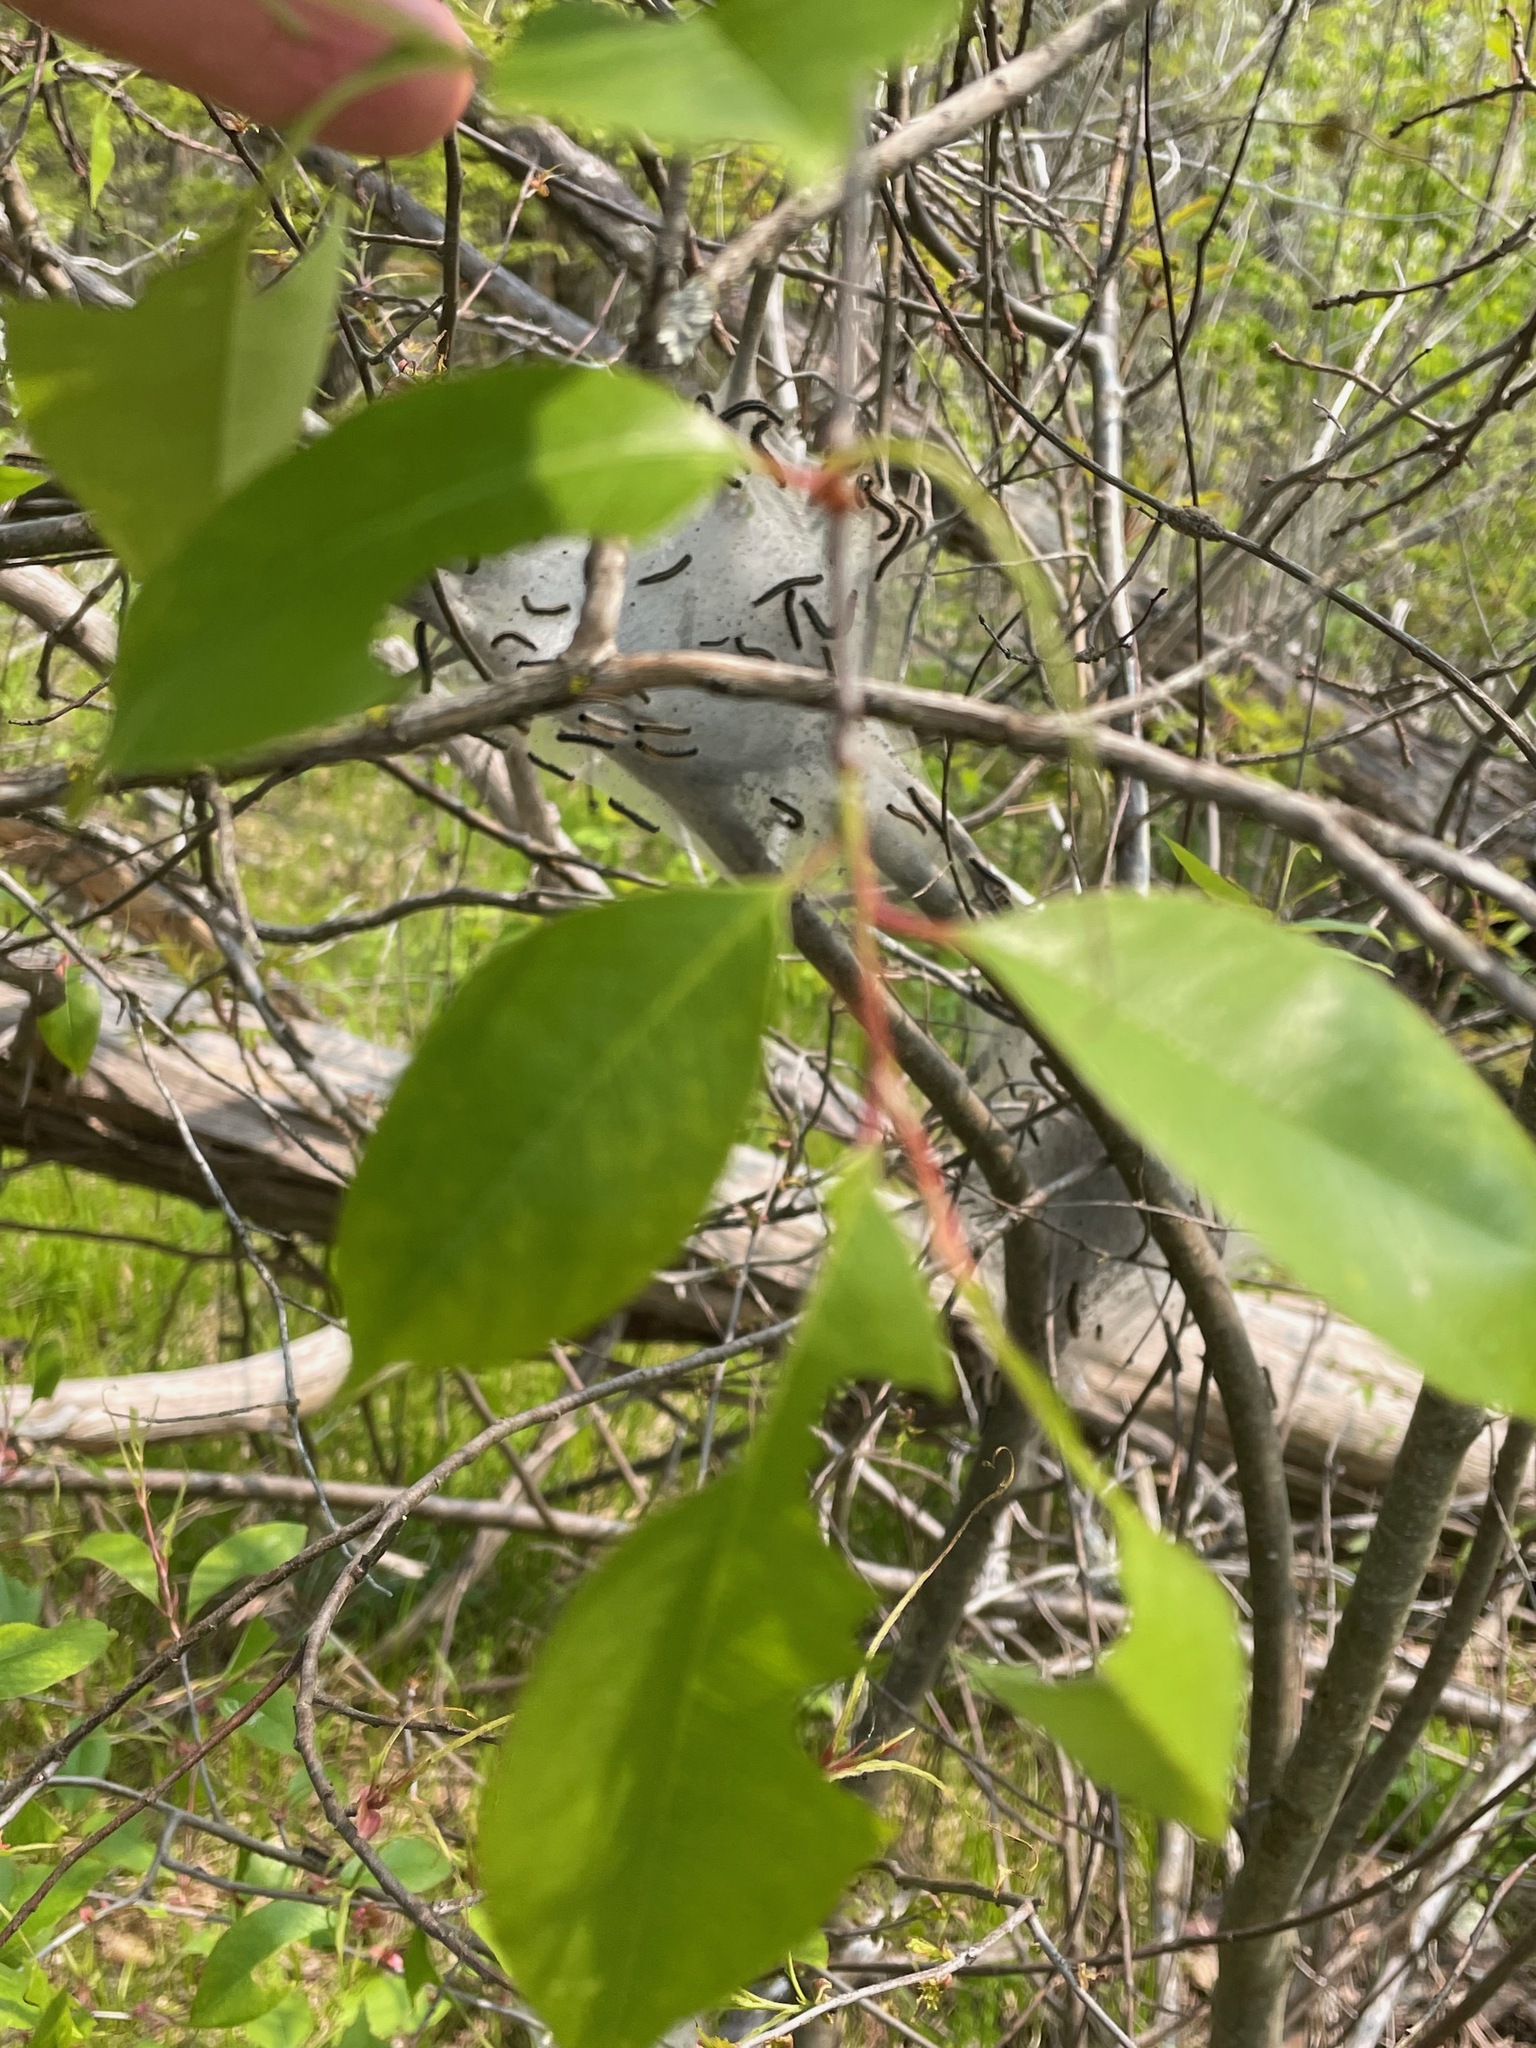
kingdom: Plantae
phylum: Tracheophyta
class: Magnoliopsida
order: Rosales
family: Rosaceae
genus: Prunus
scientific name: Prunus serotina
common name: Black cherry
